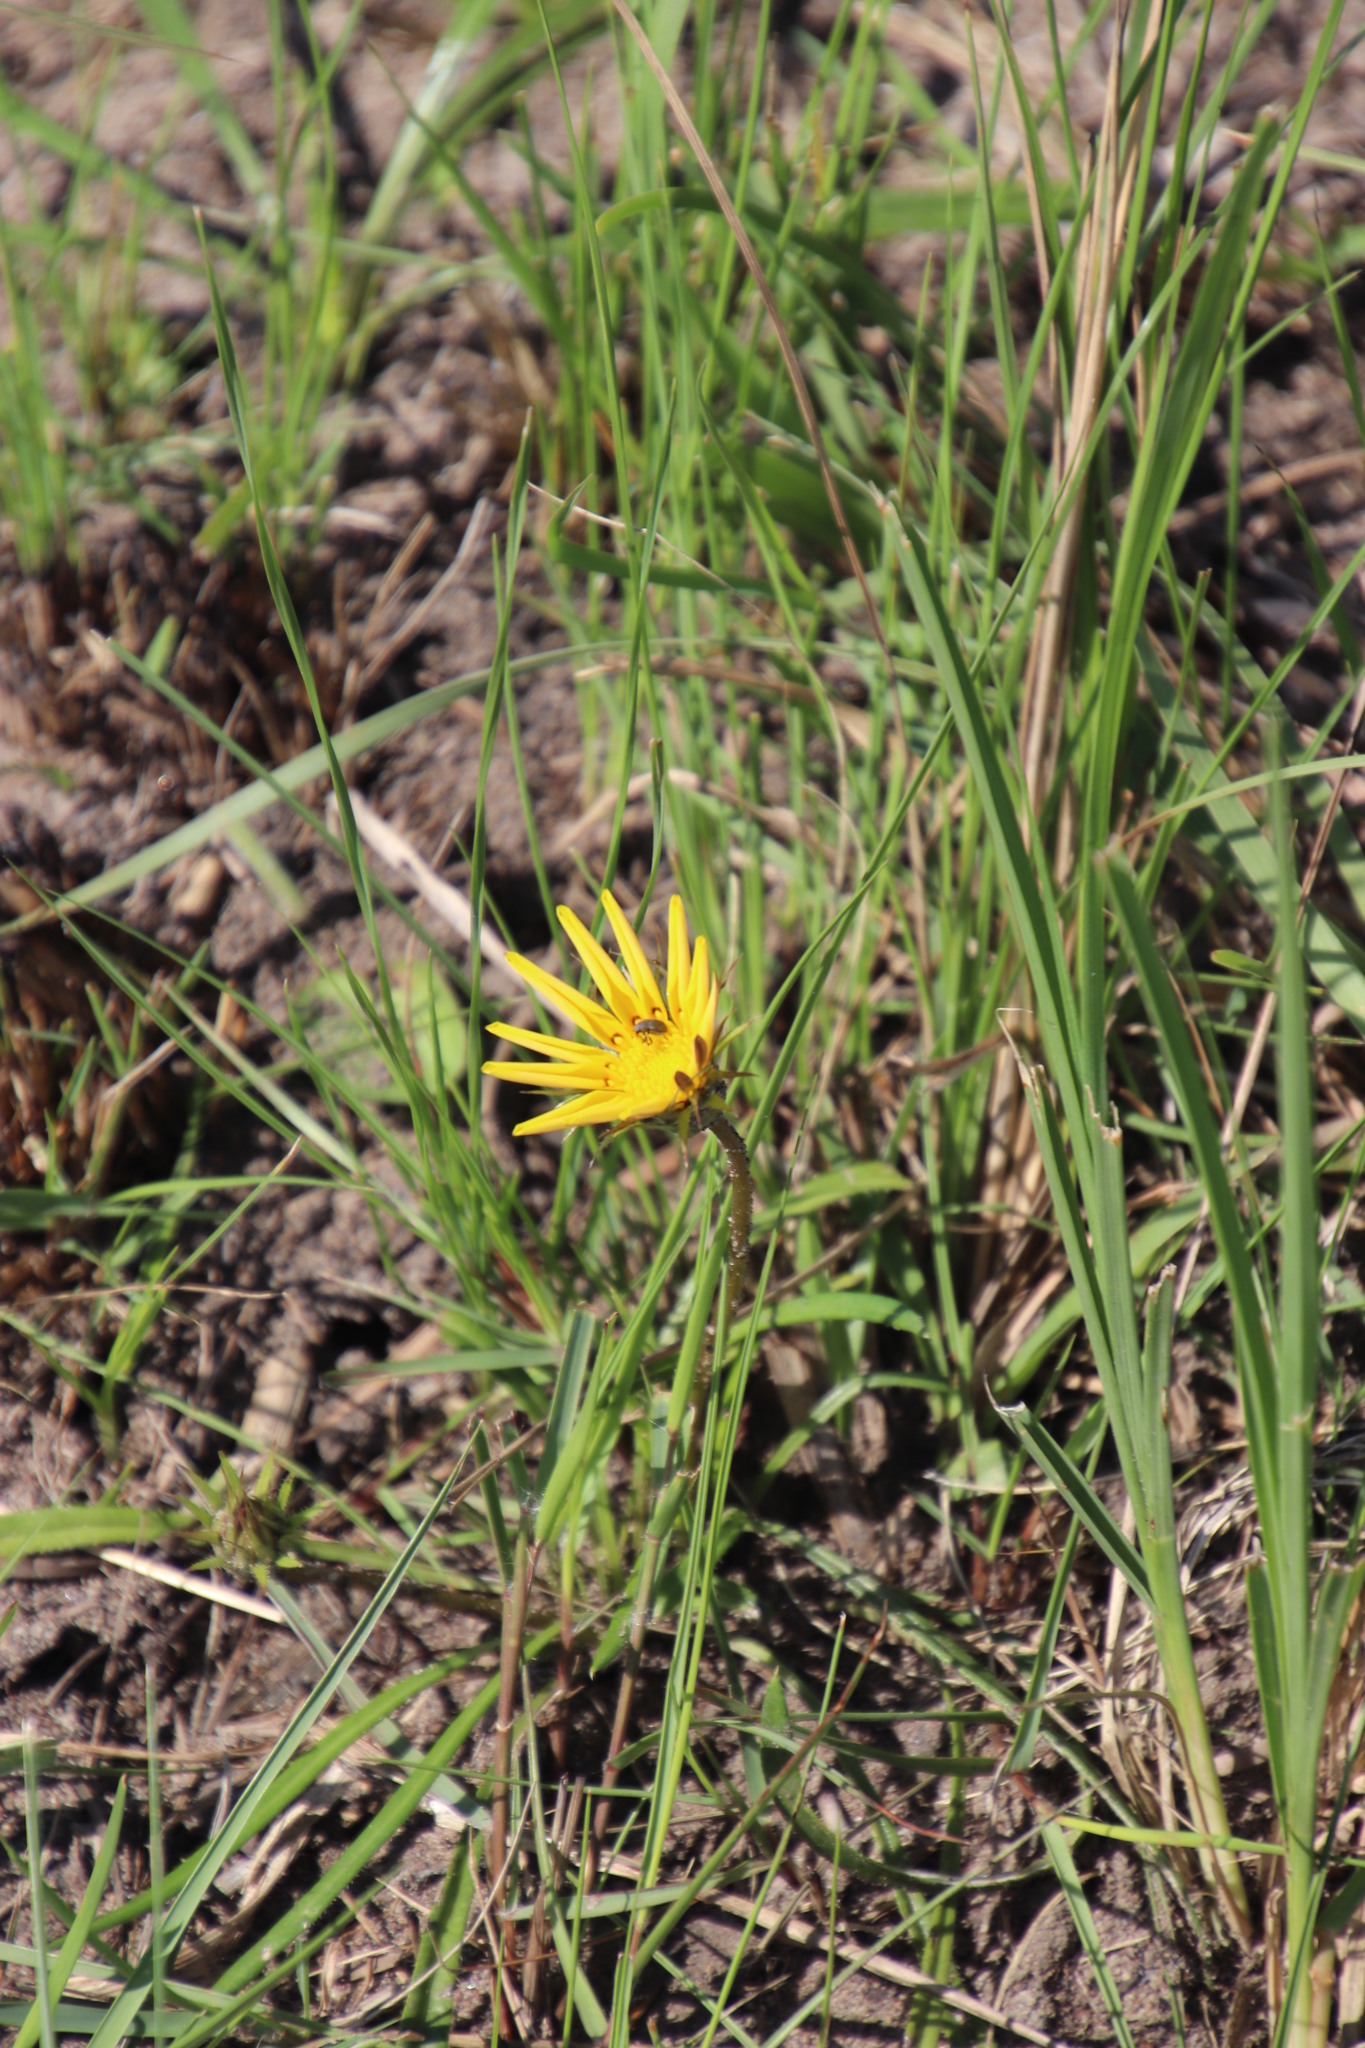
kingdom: Plantae
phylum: Tracheophyta
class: Magnoliopsida
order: Asterales
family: Asteraceae
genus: Gazania
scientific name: Gazania linearis
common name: Treasureflower
